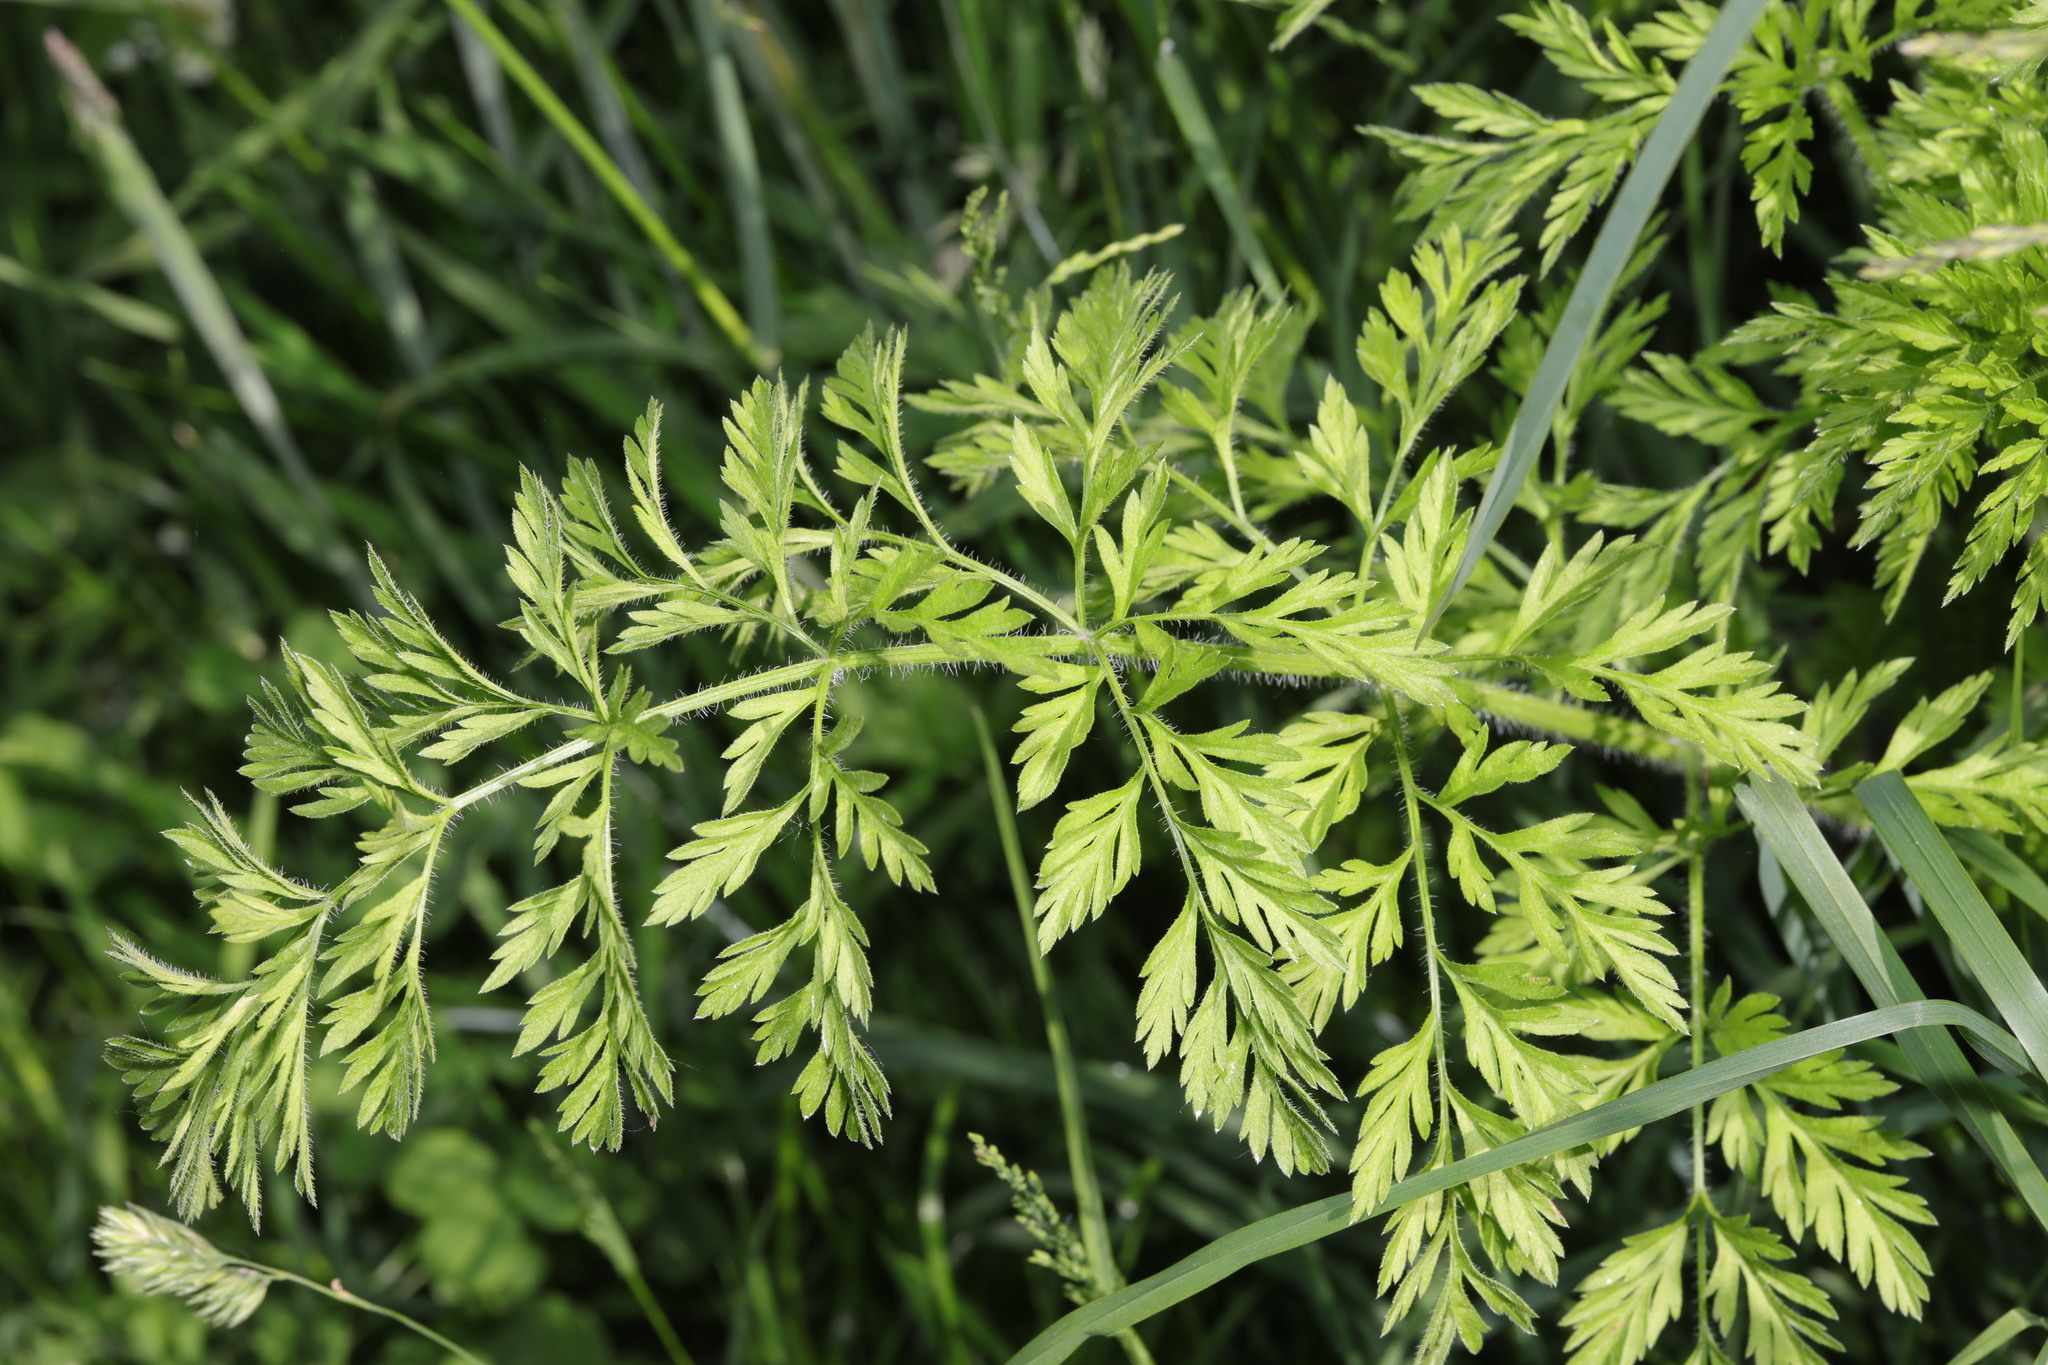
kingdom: Plantae
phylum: Tracheophyta
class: Magnoliopsida
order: Apiales
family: Apiaceae
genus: Anthriscus
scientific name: Anthriscus sylvestris
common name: Cow parsley
